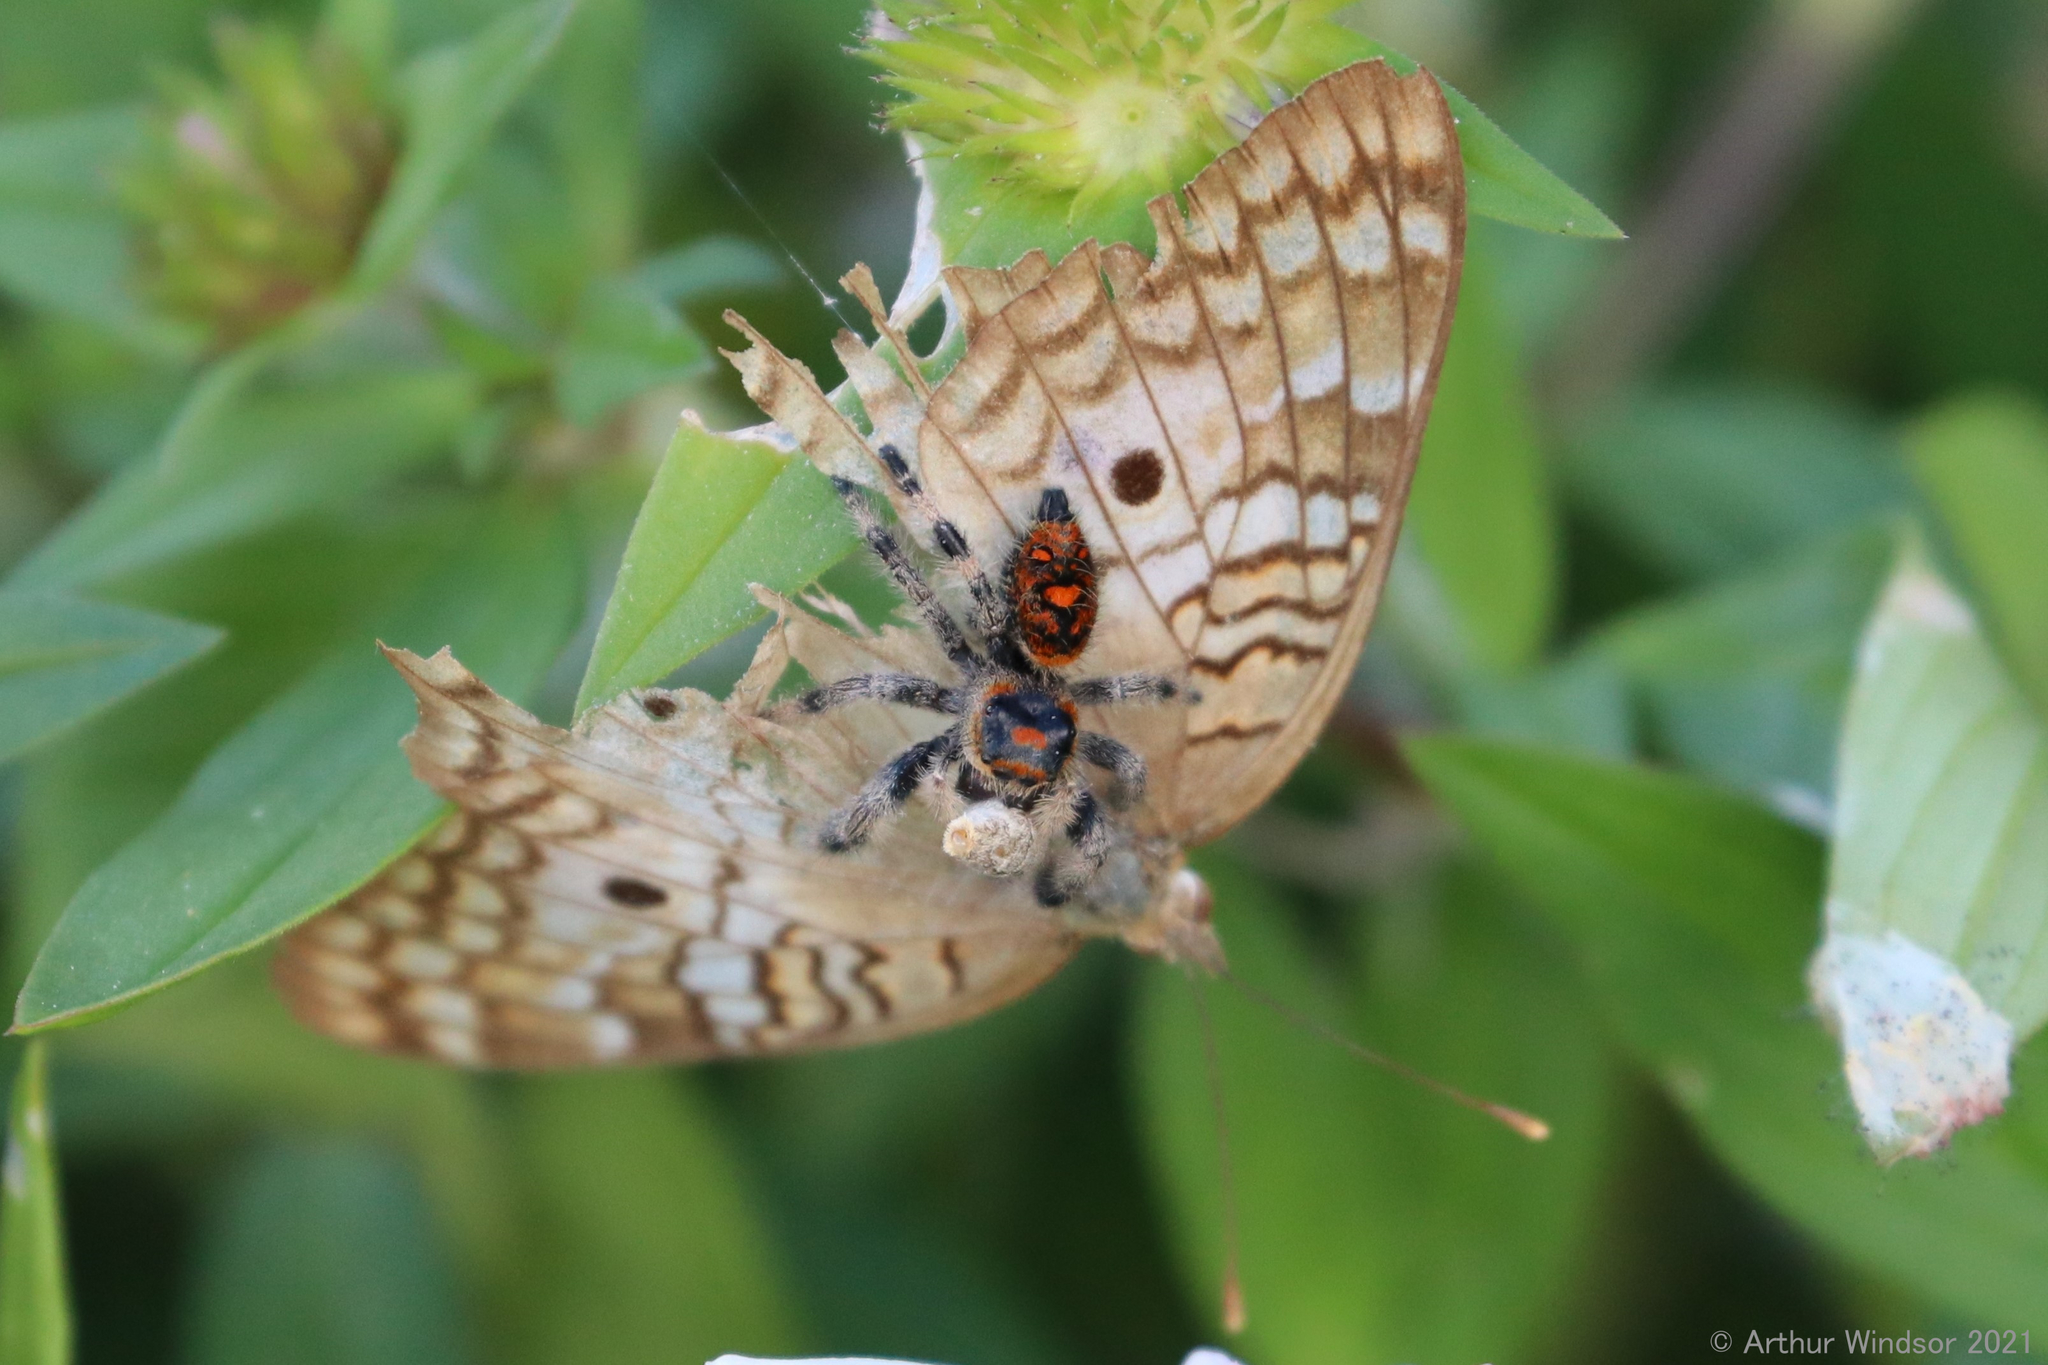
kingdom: Animalia
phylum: Arthropoda
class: Arachnida
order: Araneae
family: Salticidae
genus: Phidippus
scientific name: Phidippus regius
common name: Regal jumper
